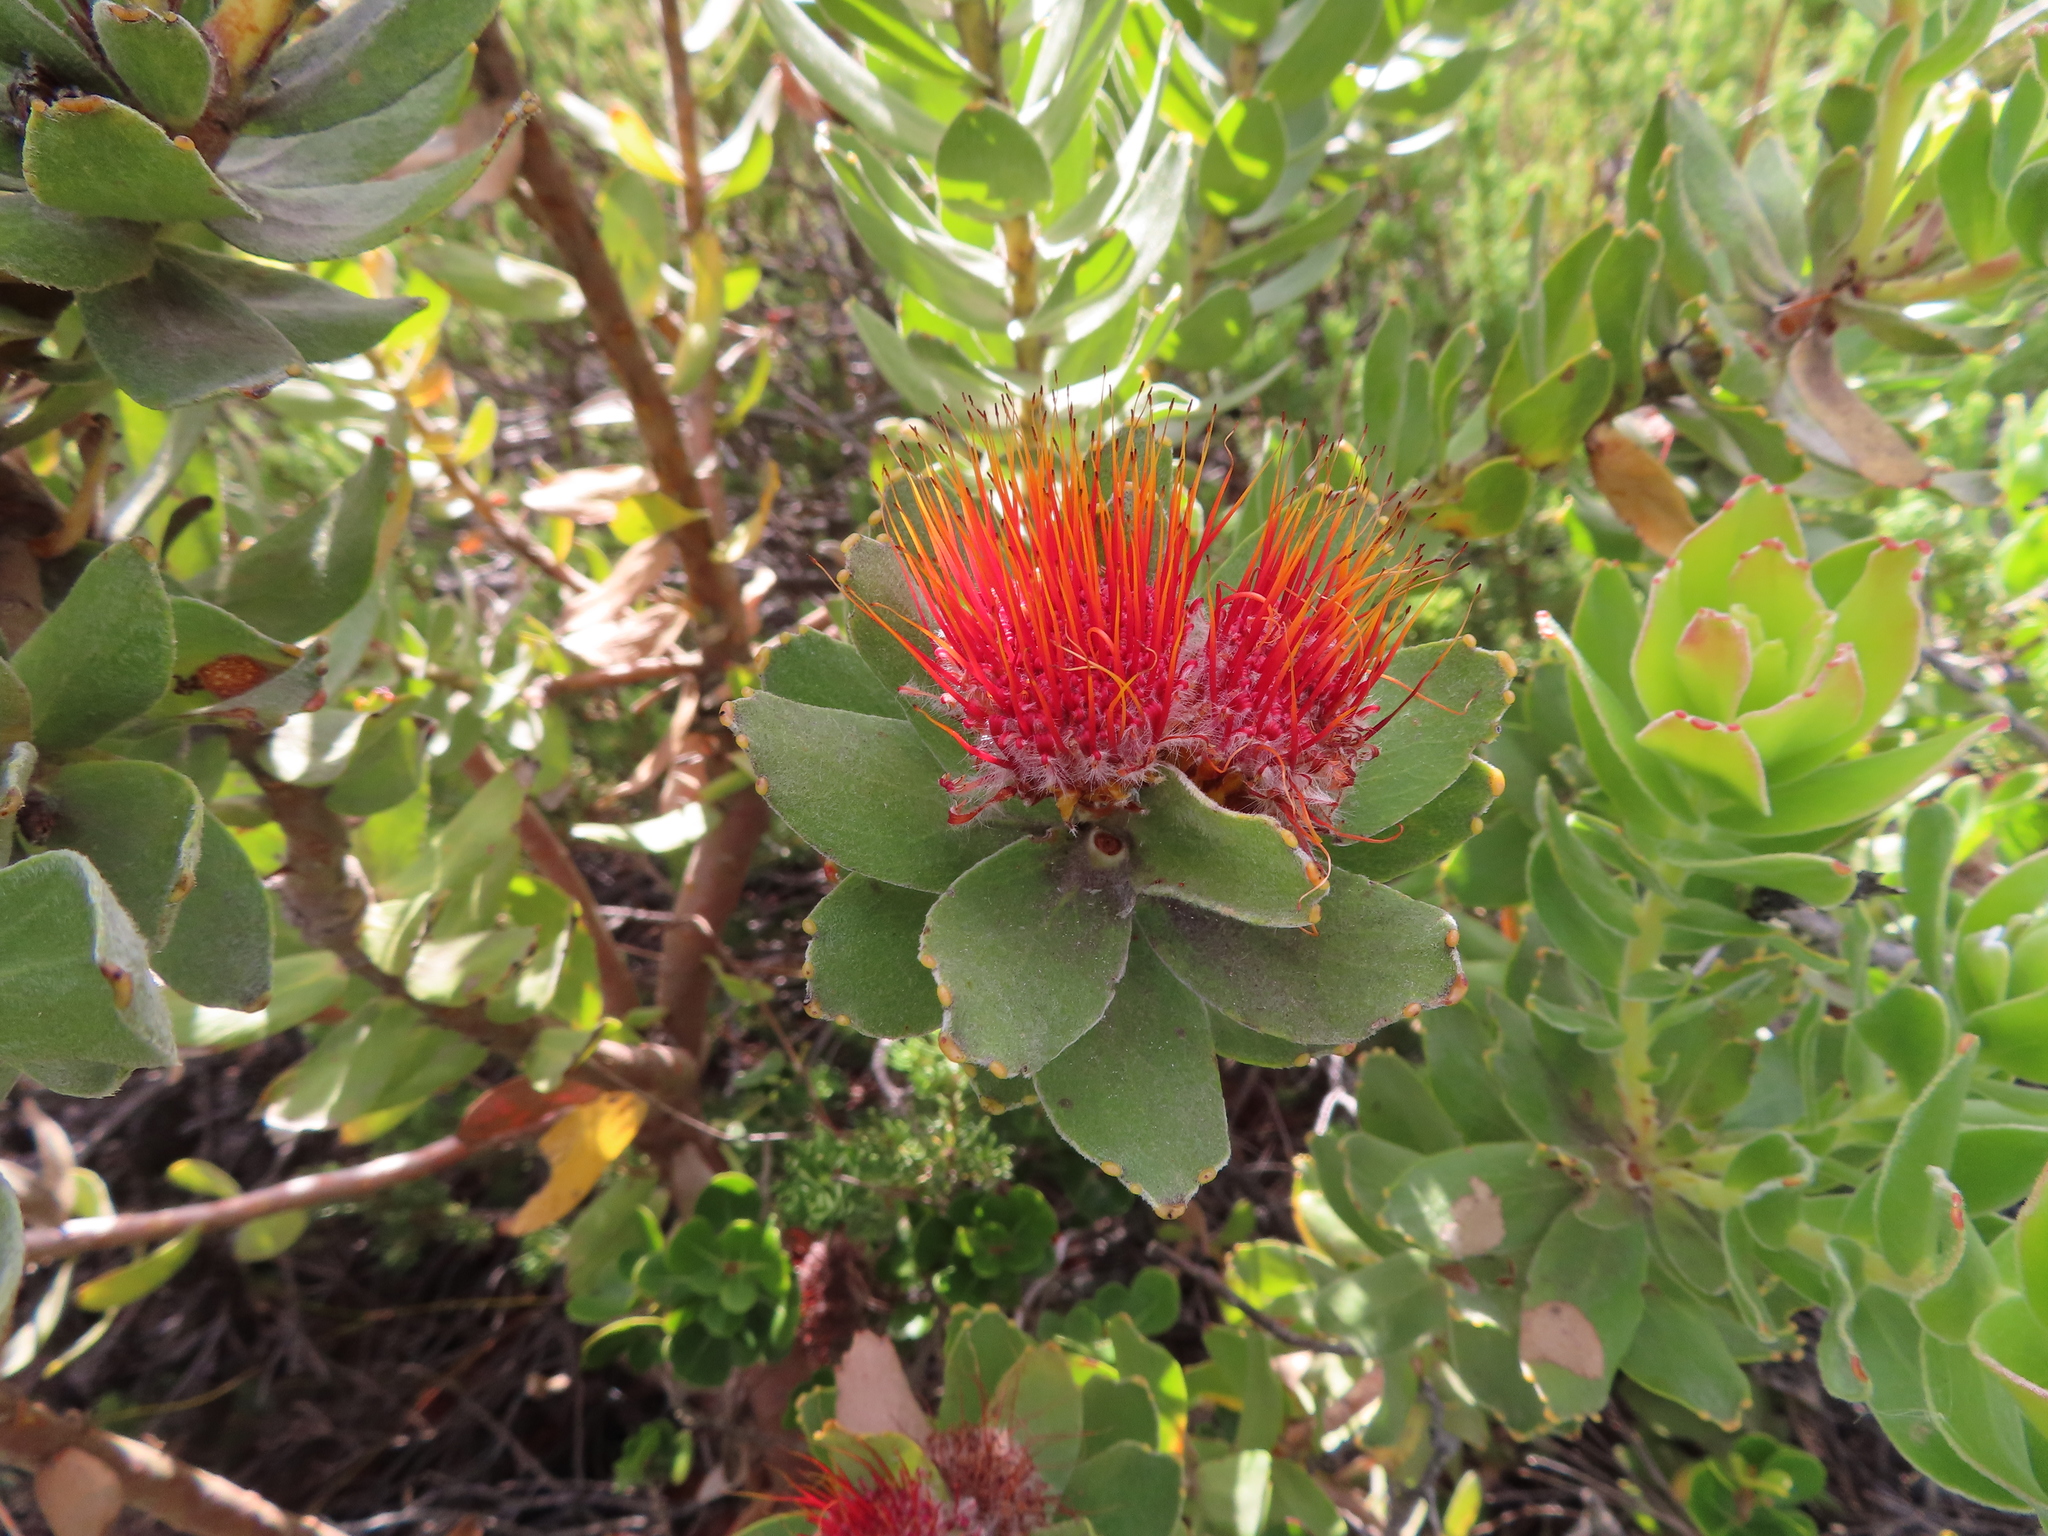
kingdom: Plantae
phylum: Tracheophyta
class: Magnoliopsida
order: Proteales
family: Proteaceae
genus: Leucospermum
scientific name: Leucospermum oleifolium
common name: Matches
